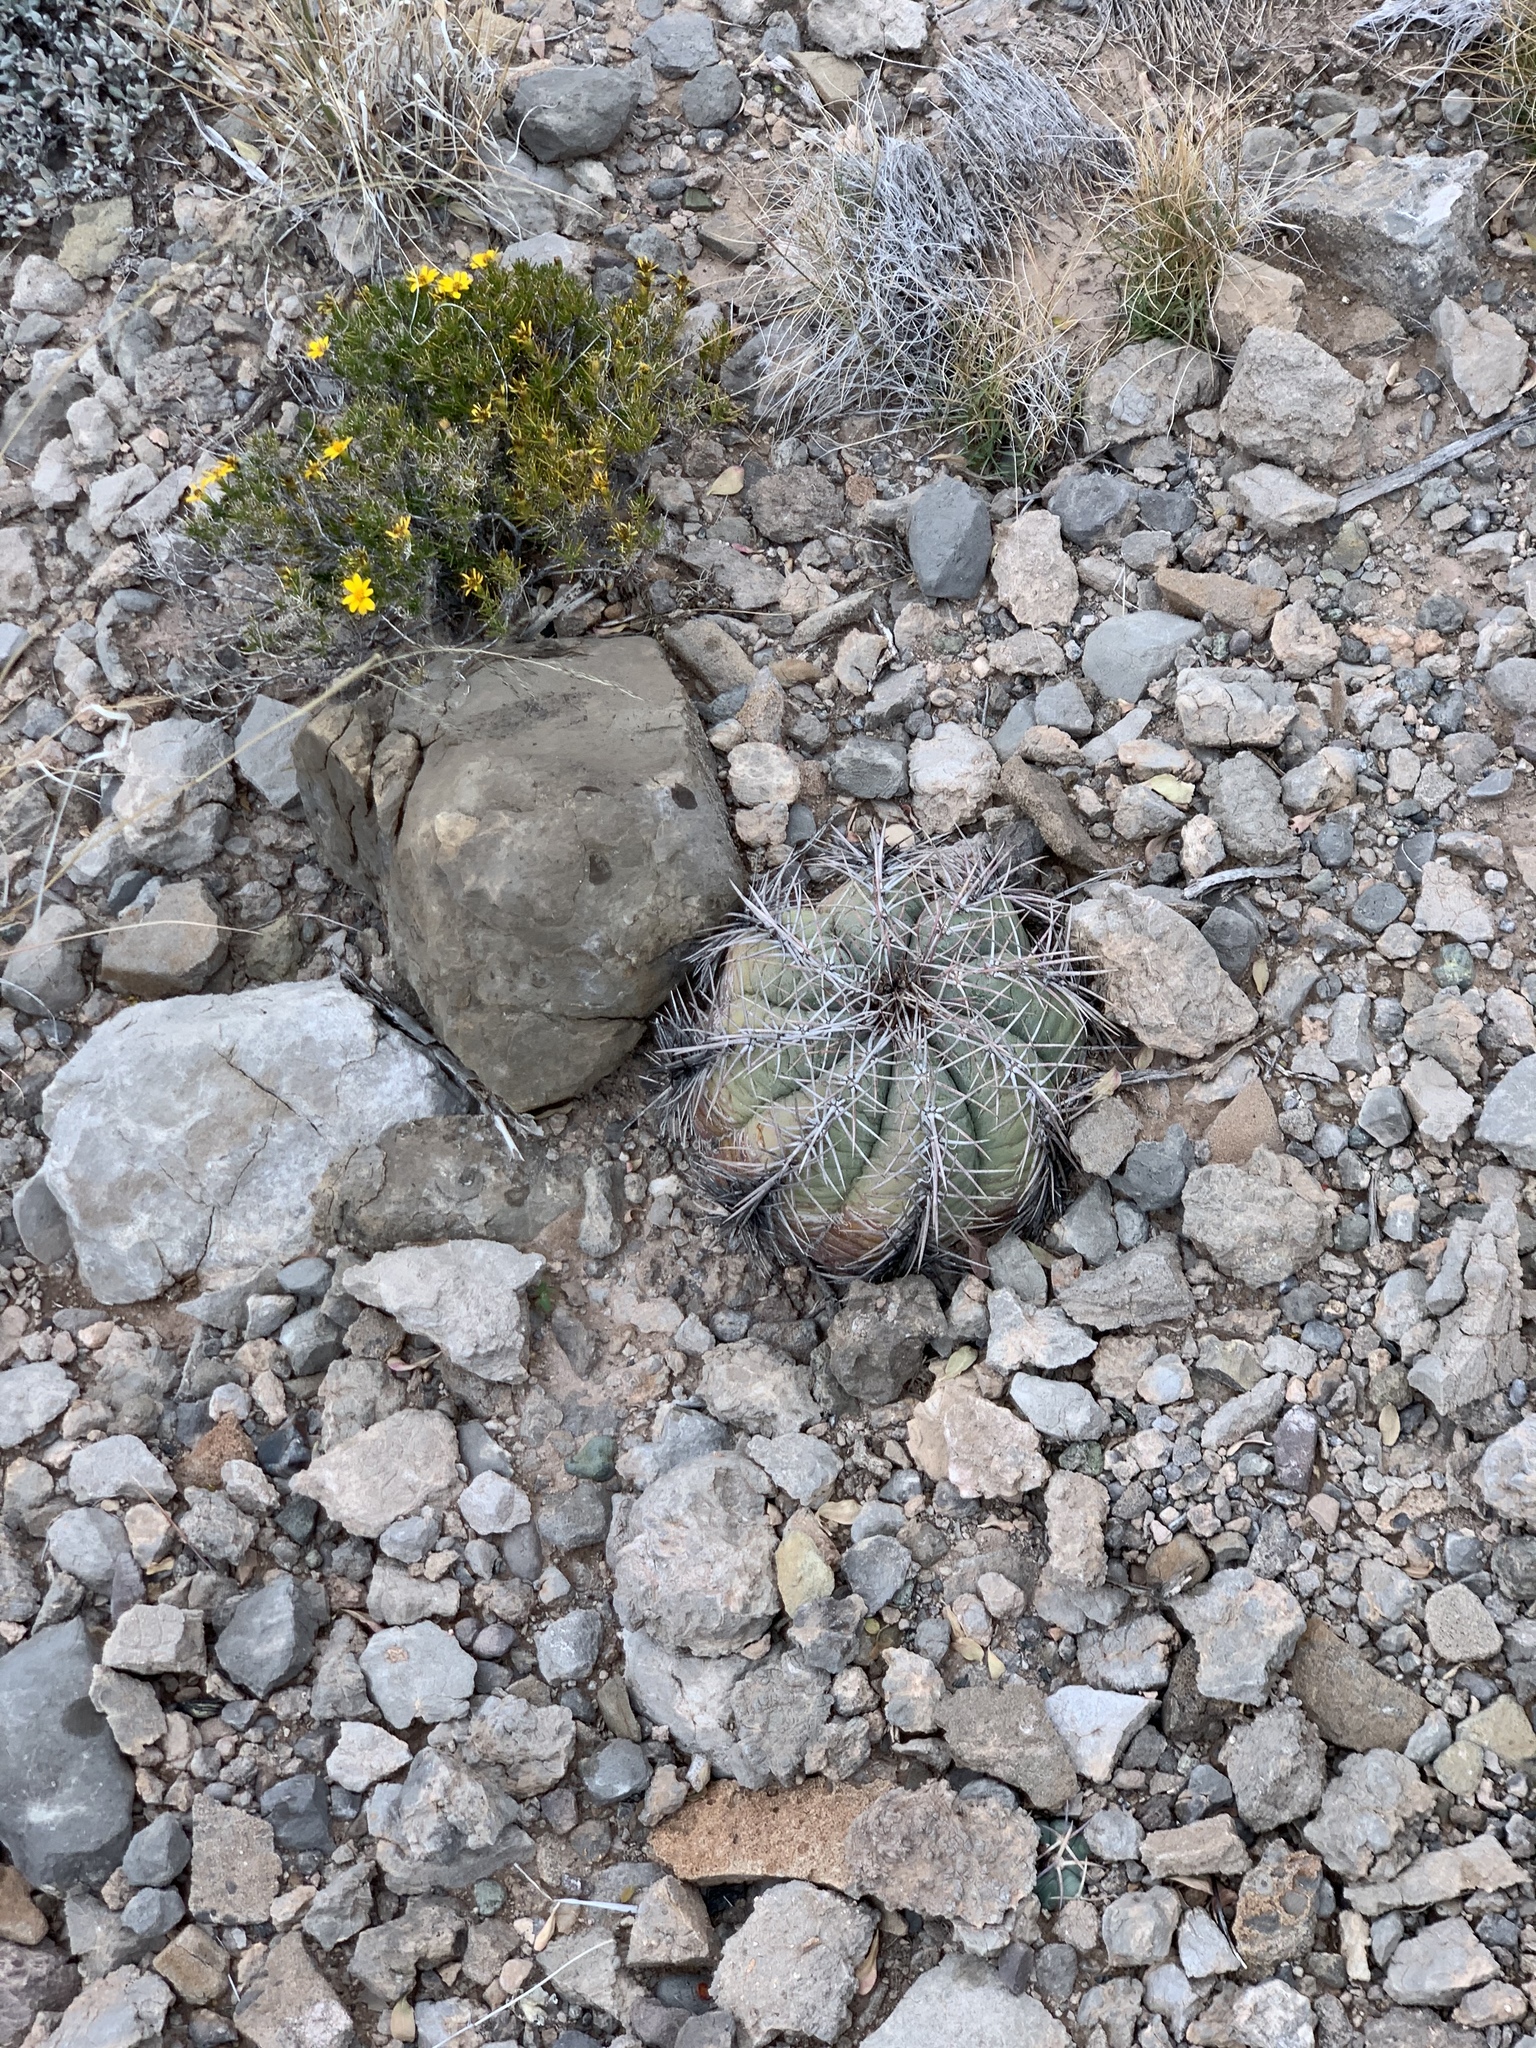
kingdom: Plantae
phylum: Tracheophyta
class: Magnoliopsida
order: Caryophyllales
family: Cactaceae
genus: Echinocactus
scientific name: Echinocactus horizonthalonius
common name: Devilshead
